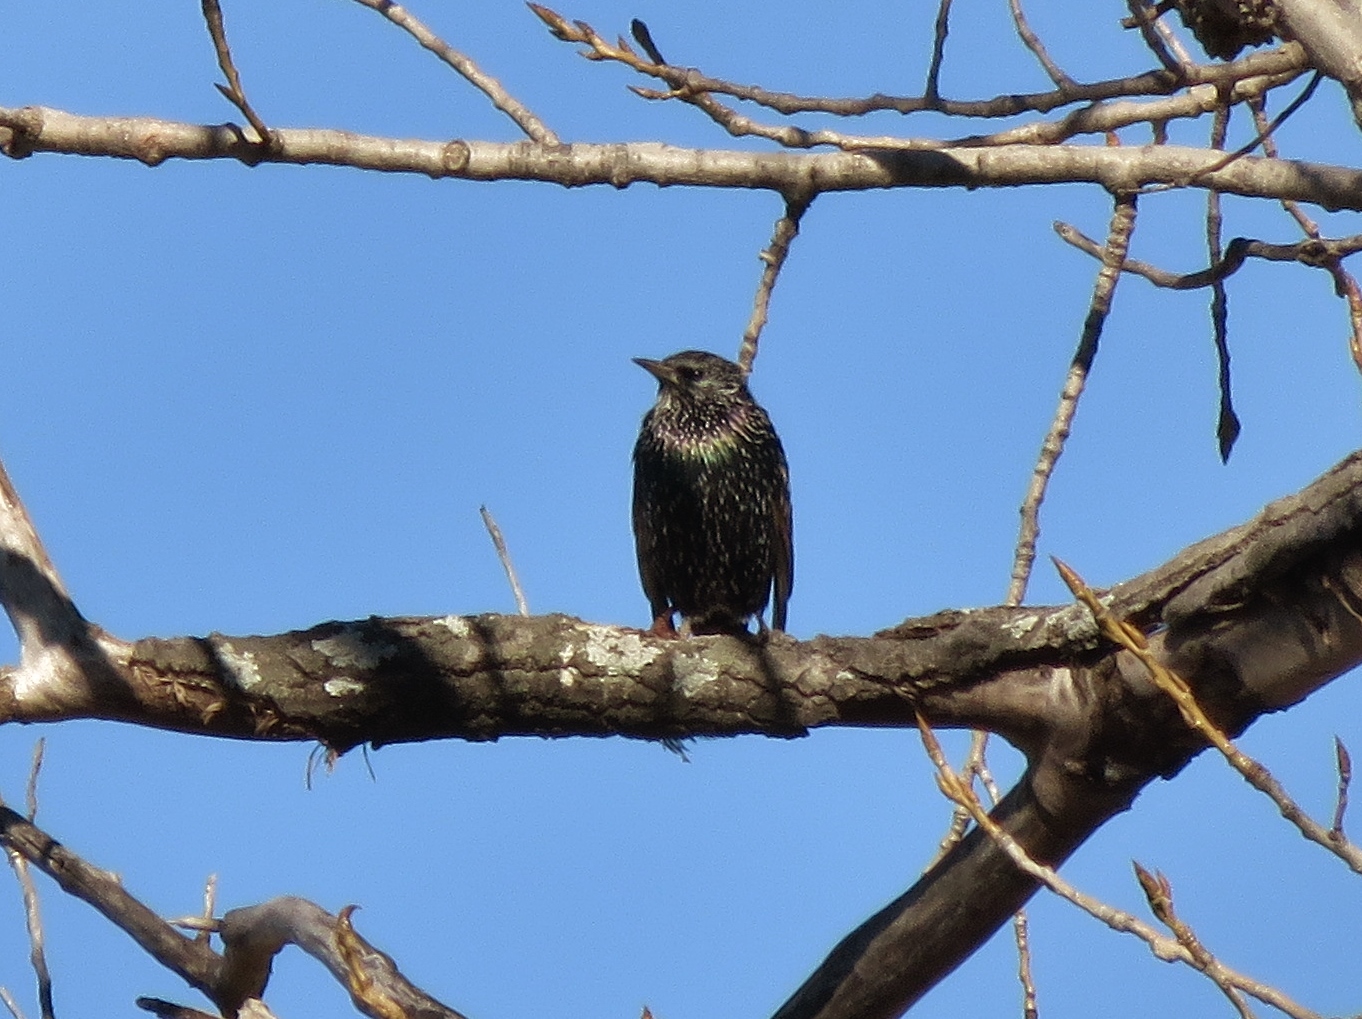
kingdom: Animalia
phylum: Chordata
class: Aves
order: Passeriformes
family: Sturnidae
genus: Sturnus
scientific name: Sturnus vulgaris
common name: Common starling
